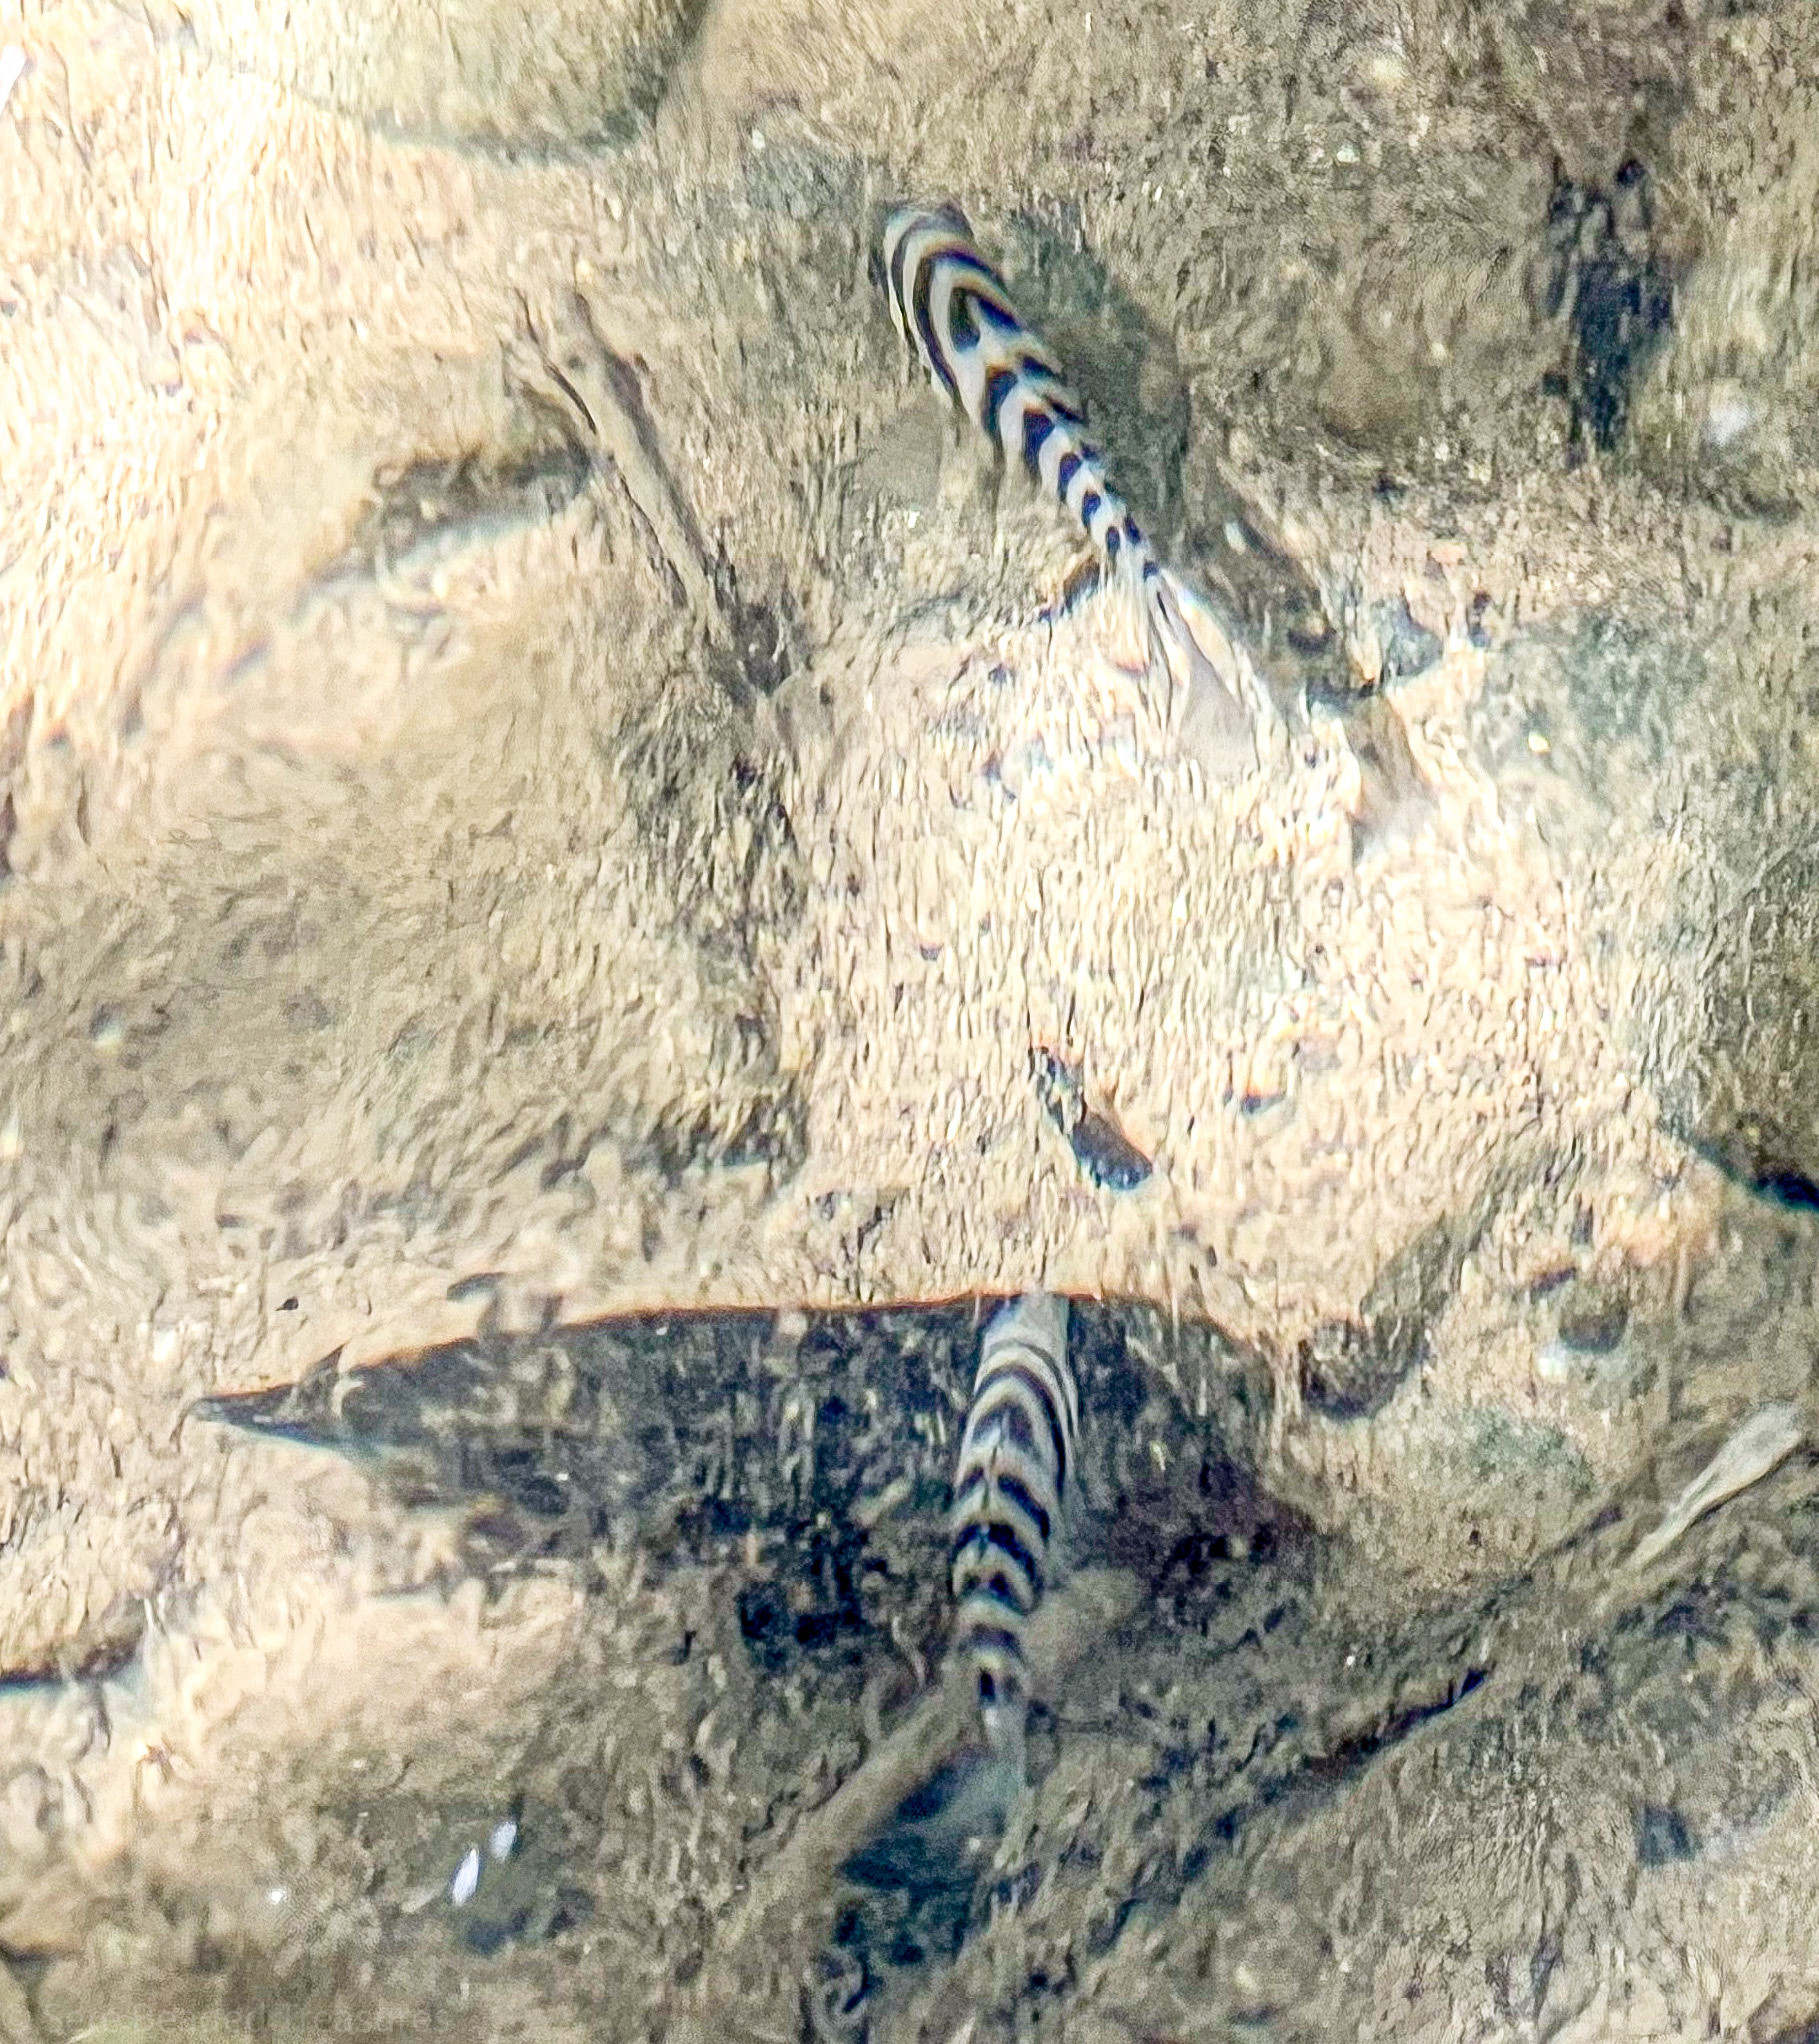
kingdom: Animalia
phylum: Chordata
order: Perciformes
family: Cichlidae
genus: Amatitlania
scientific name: Amatitlania nigrofasciata
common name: Convict cichlid
